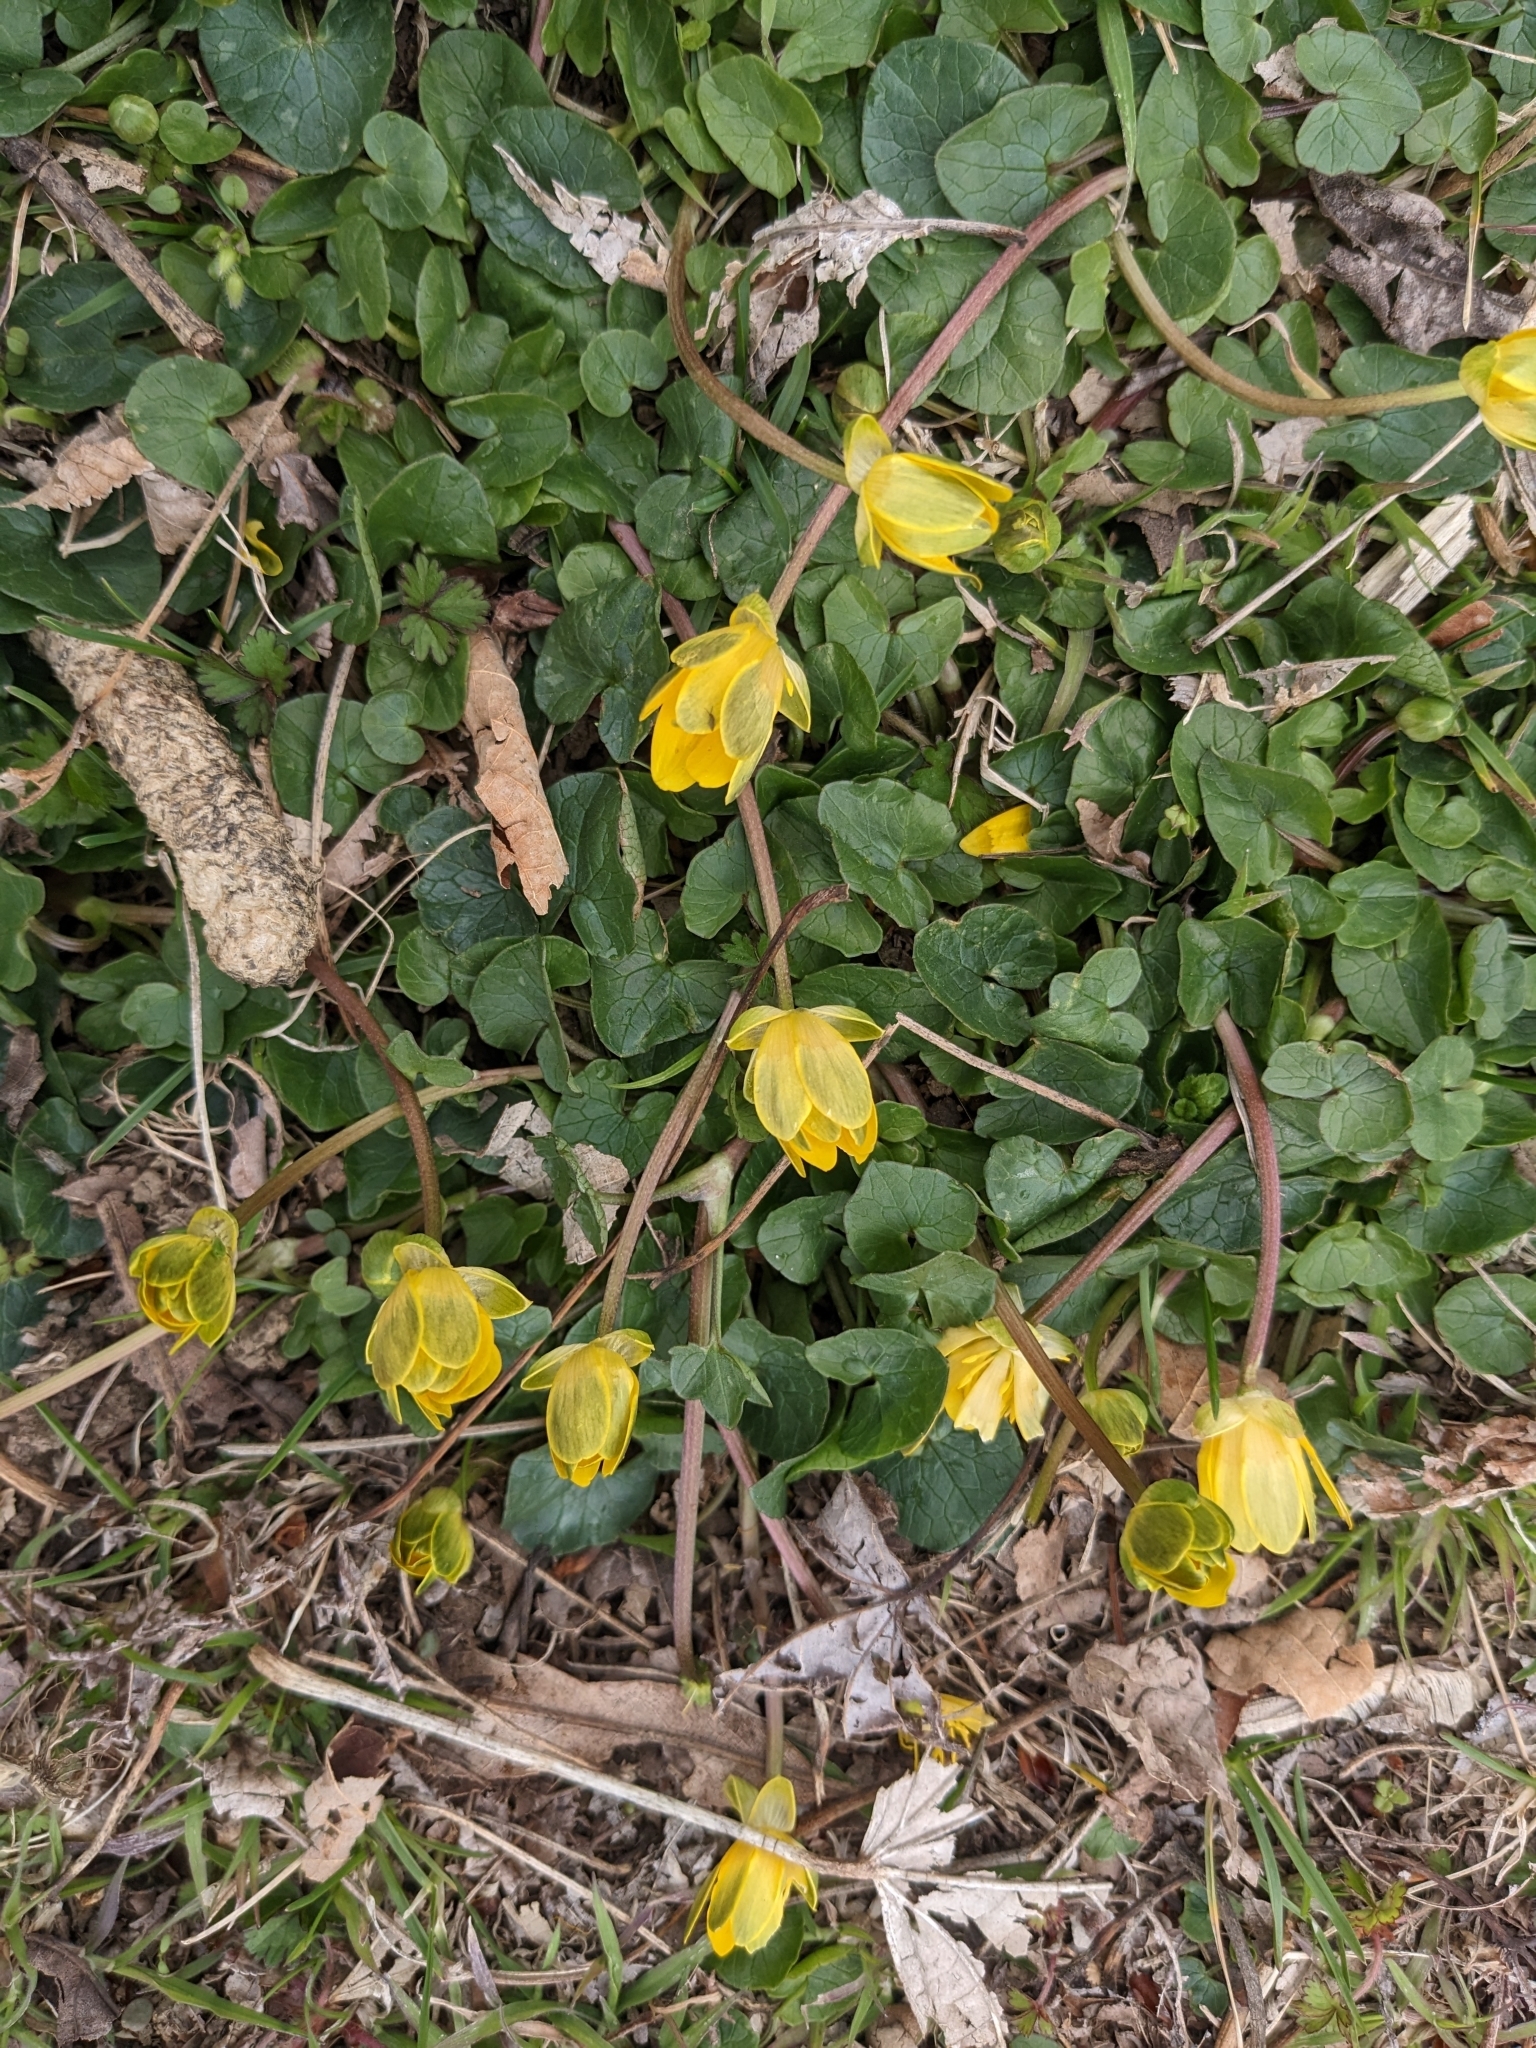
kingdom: Plantae
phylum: Tracheophyta
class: Magnoliopsida
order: Ranunculales
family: Ranunculaceae
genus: Ficaria
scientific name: Ficaria verna
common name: Lesser celandine
